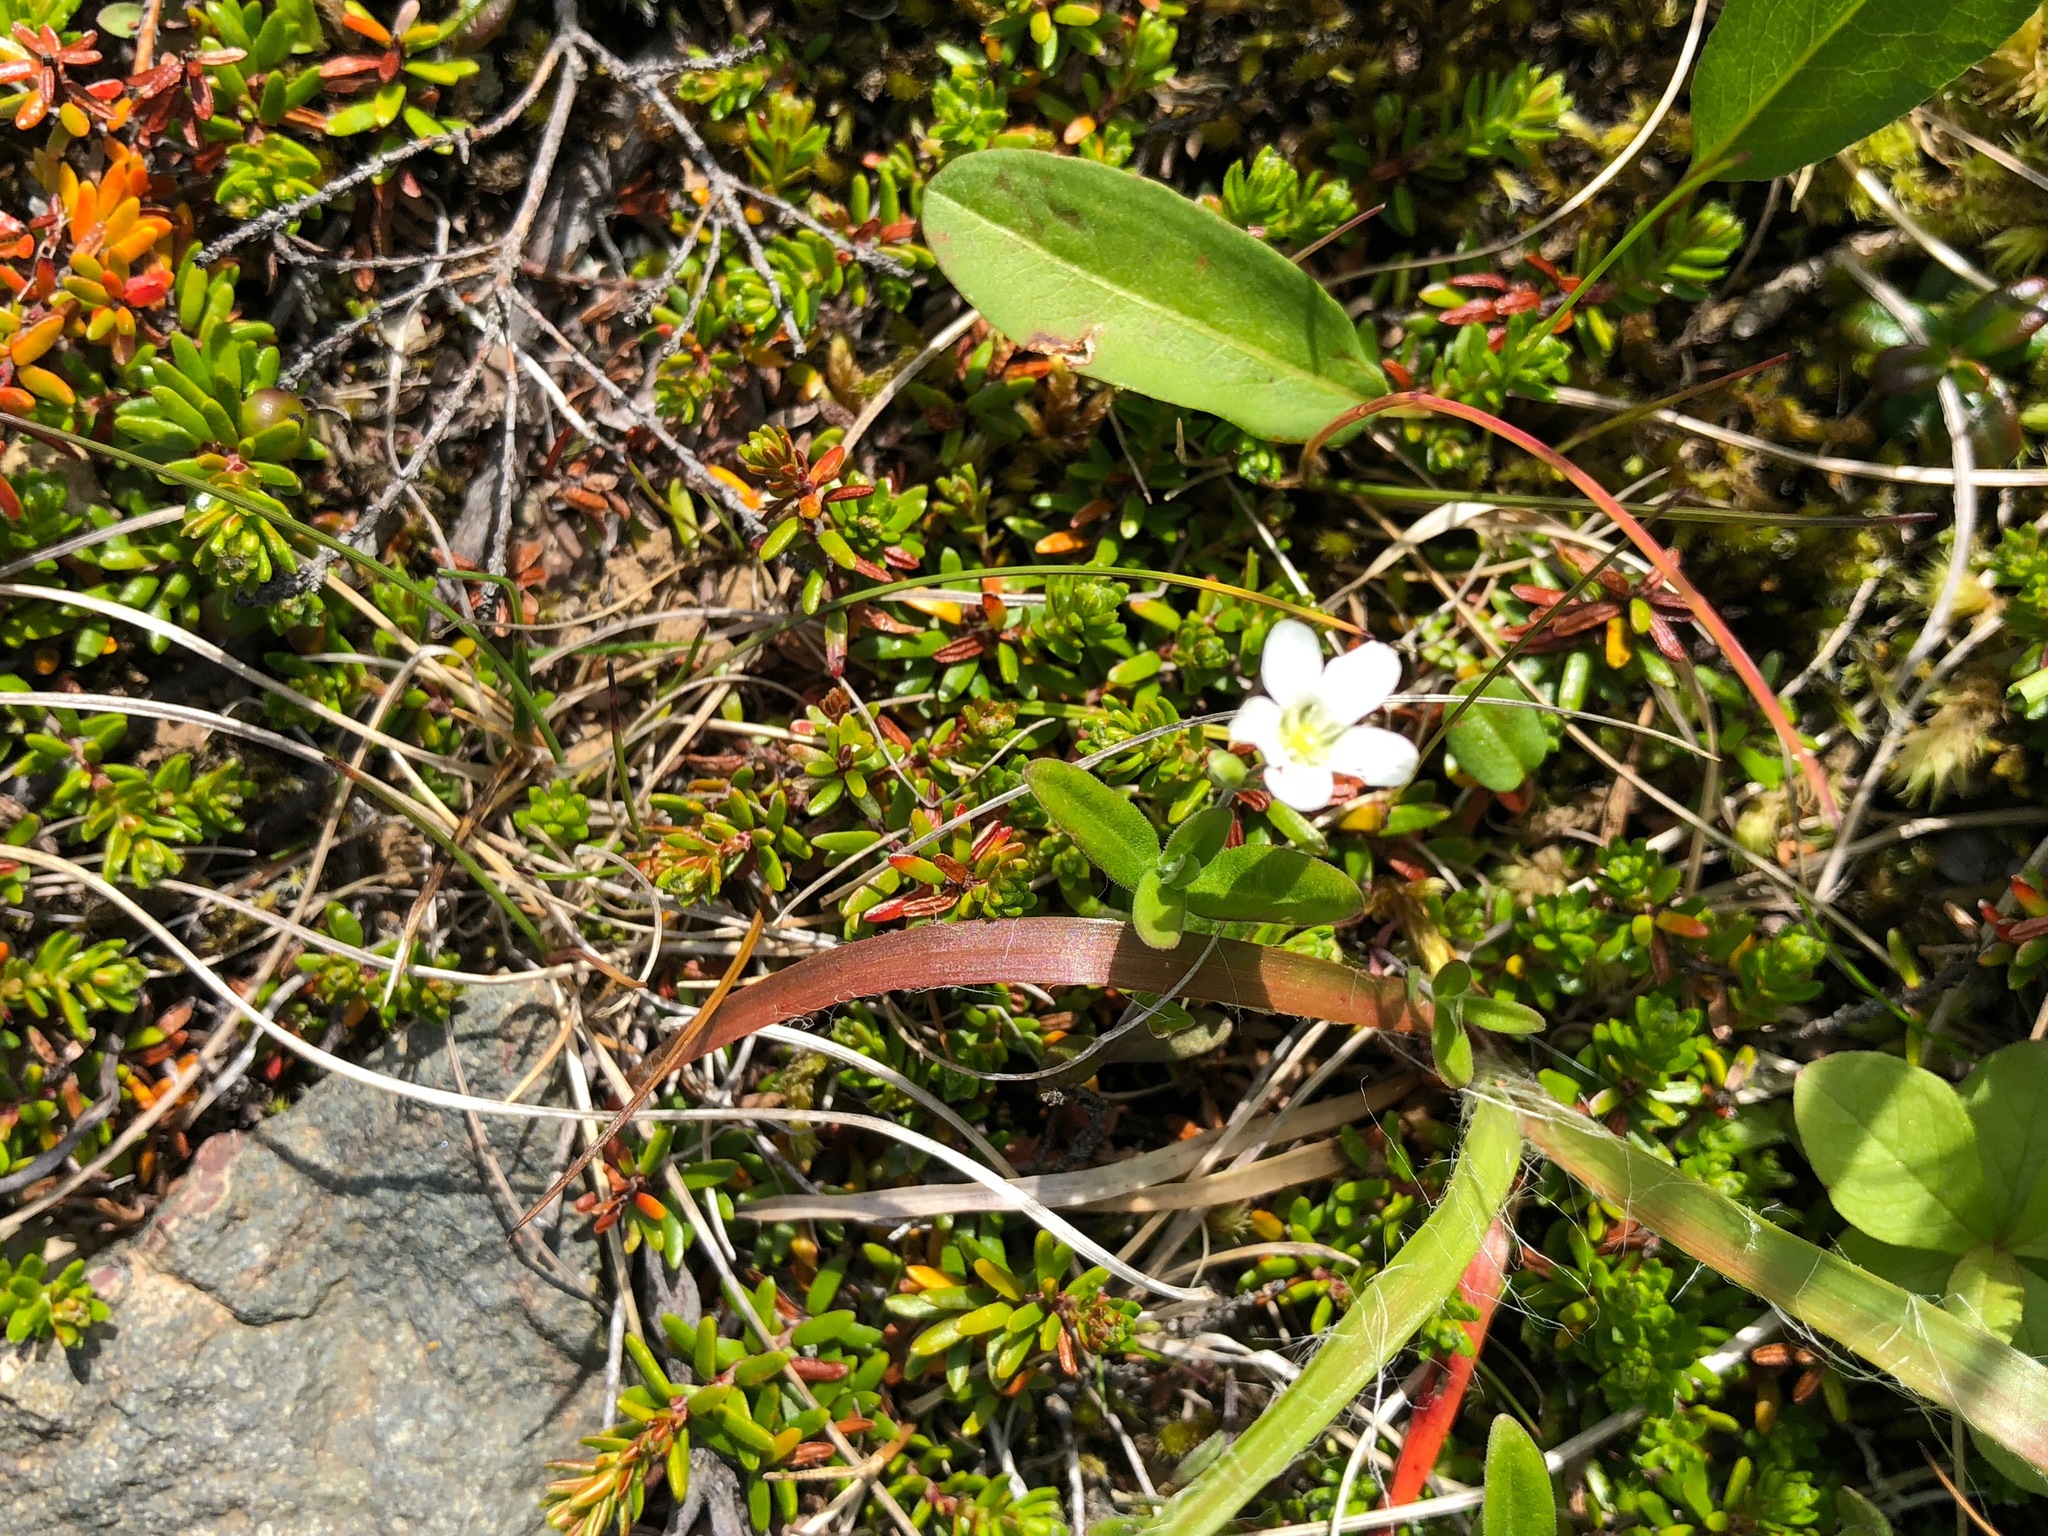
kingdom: Plantae
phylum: Tracheophyta
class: Magnoliopsida
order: Caryophyllales
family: Caryophyllaceae
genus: Moehringia
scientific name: Moehringia lateriflora
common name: Blunt-leaved sandwort
